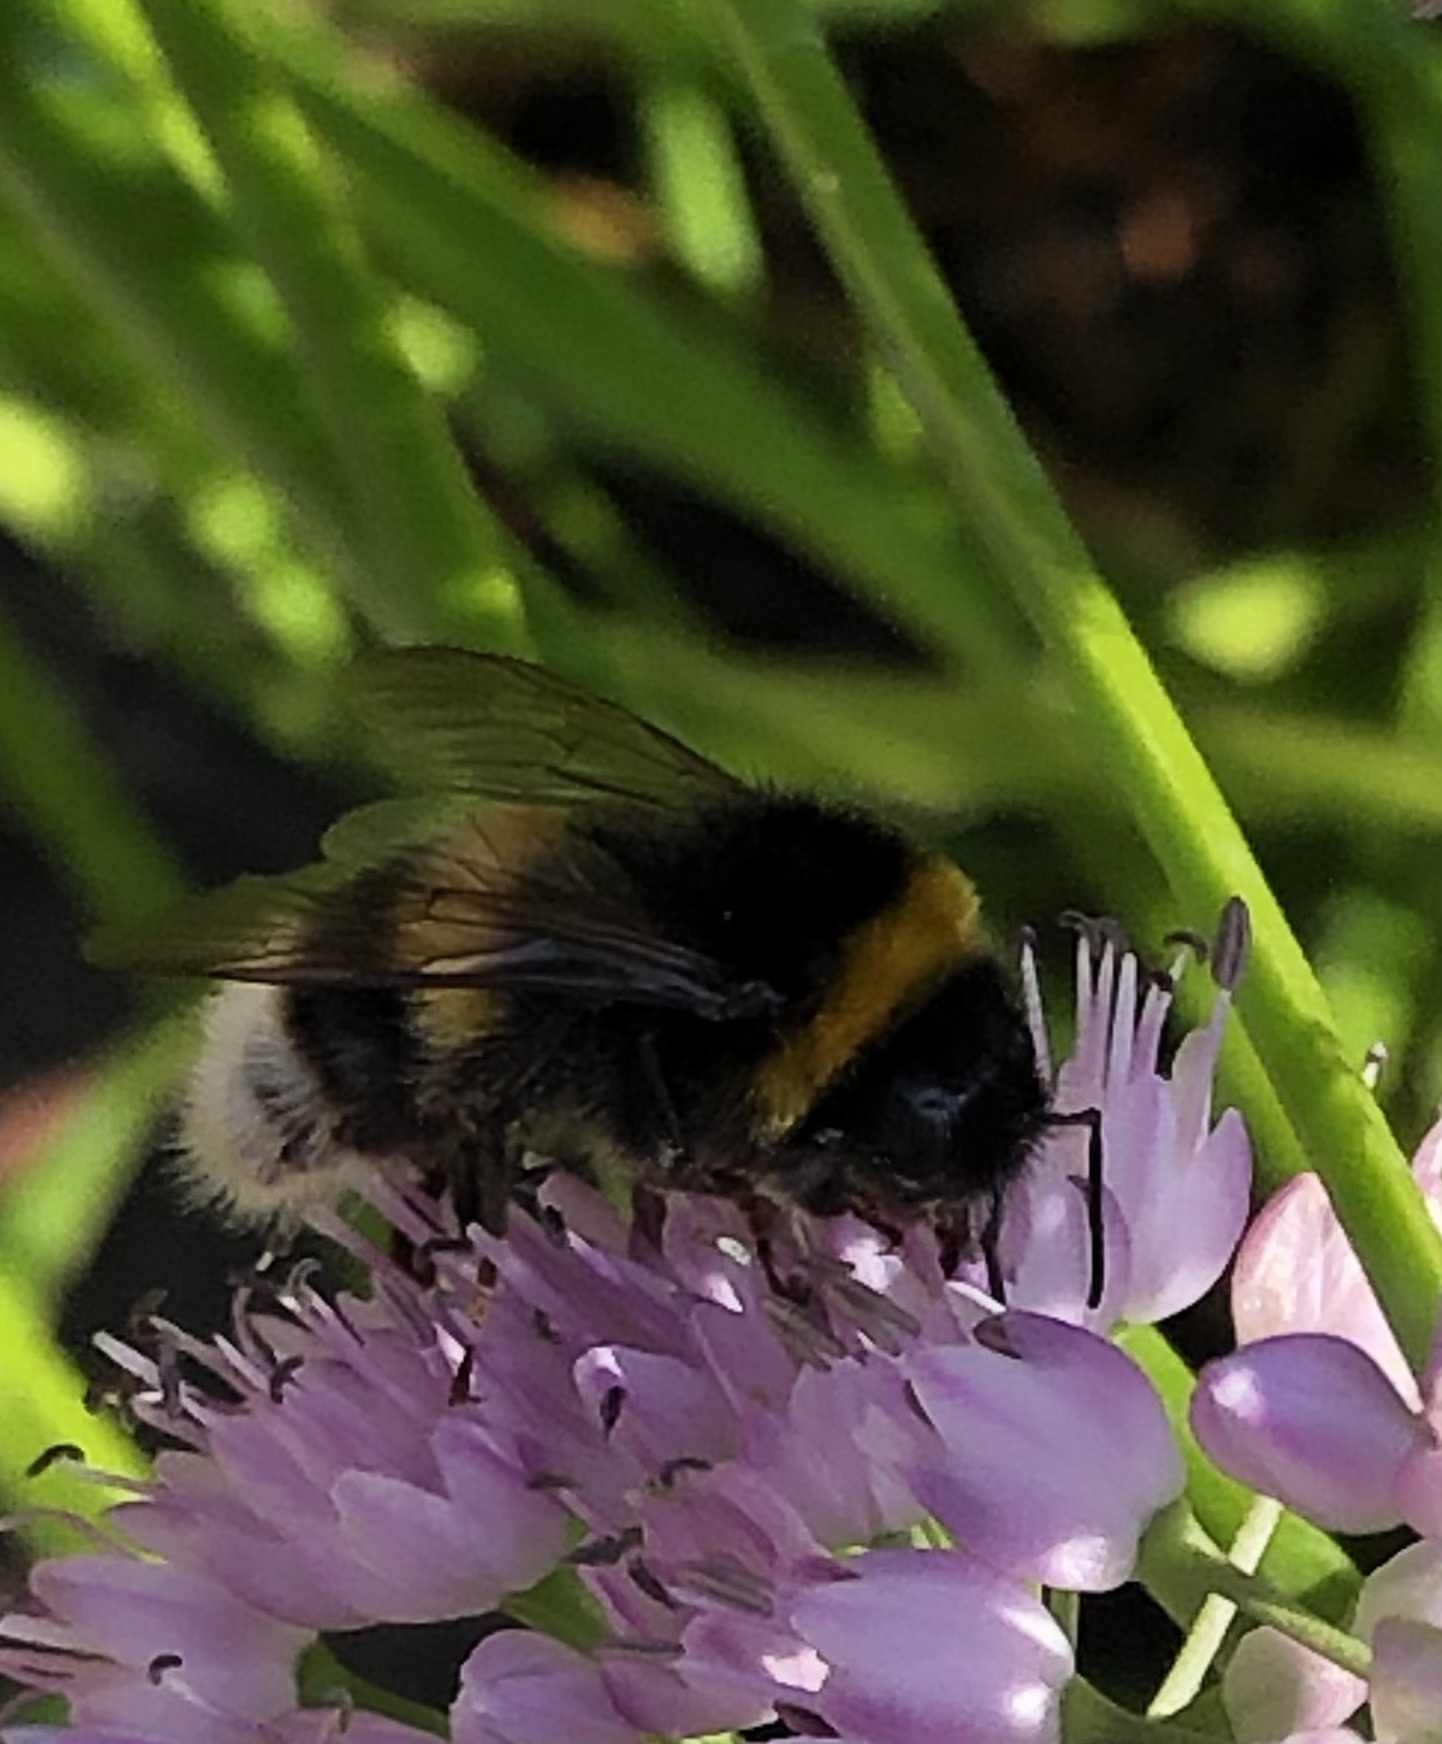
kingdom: Animalia
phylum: Arthropoda
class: Insecta
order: Hymenoptera
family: Apidae
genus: Bombus
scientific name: Bombus terrestris
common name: Buff-tailed bumblebee
